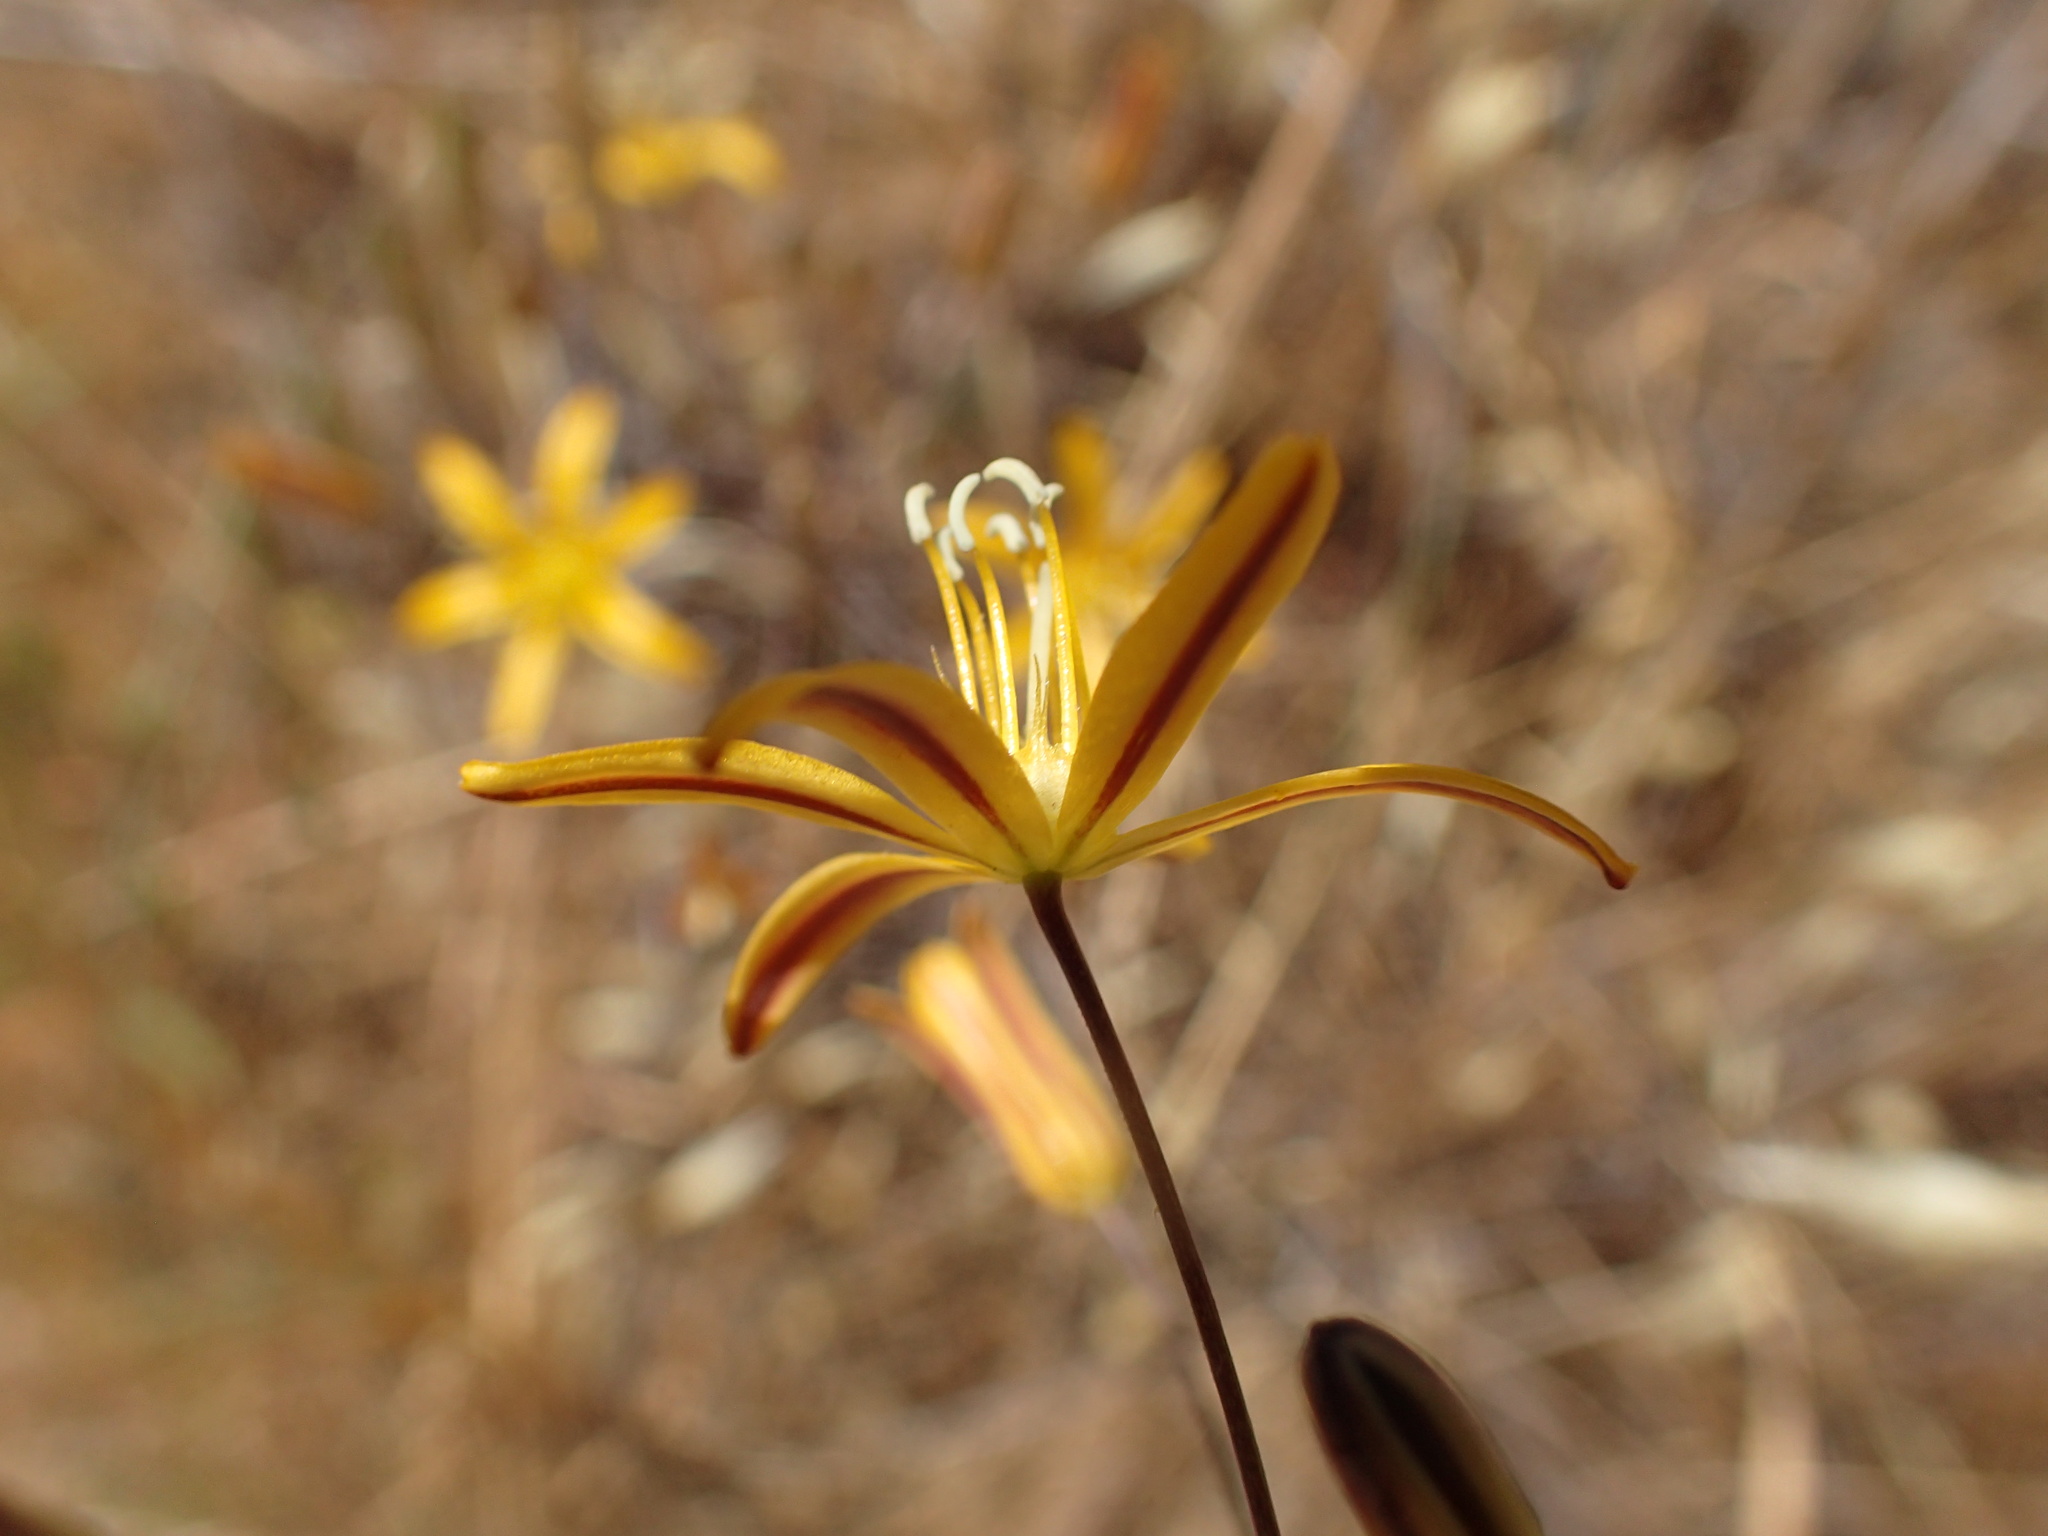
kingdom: Plantae
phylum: Tracheophyta
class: Liliopsida
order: Asparagales
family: Asparagaceae
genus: Bloomeria
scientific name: Bloomeria crocea
